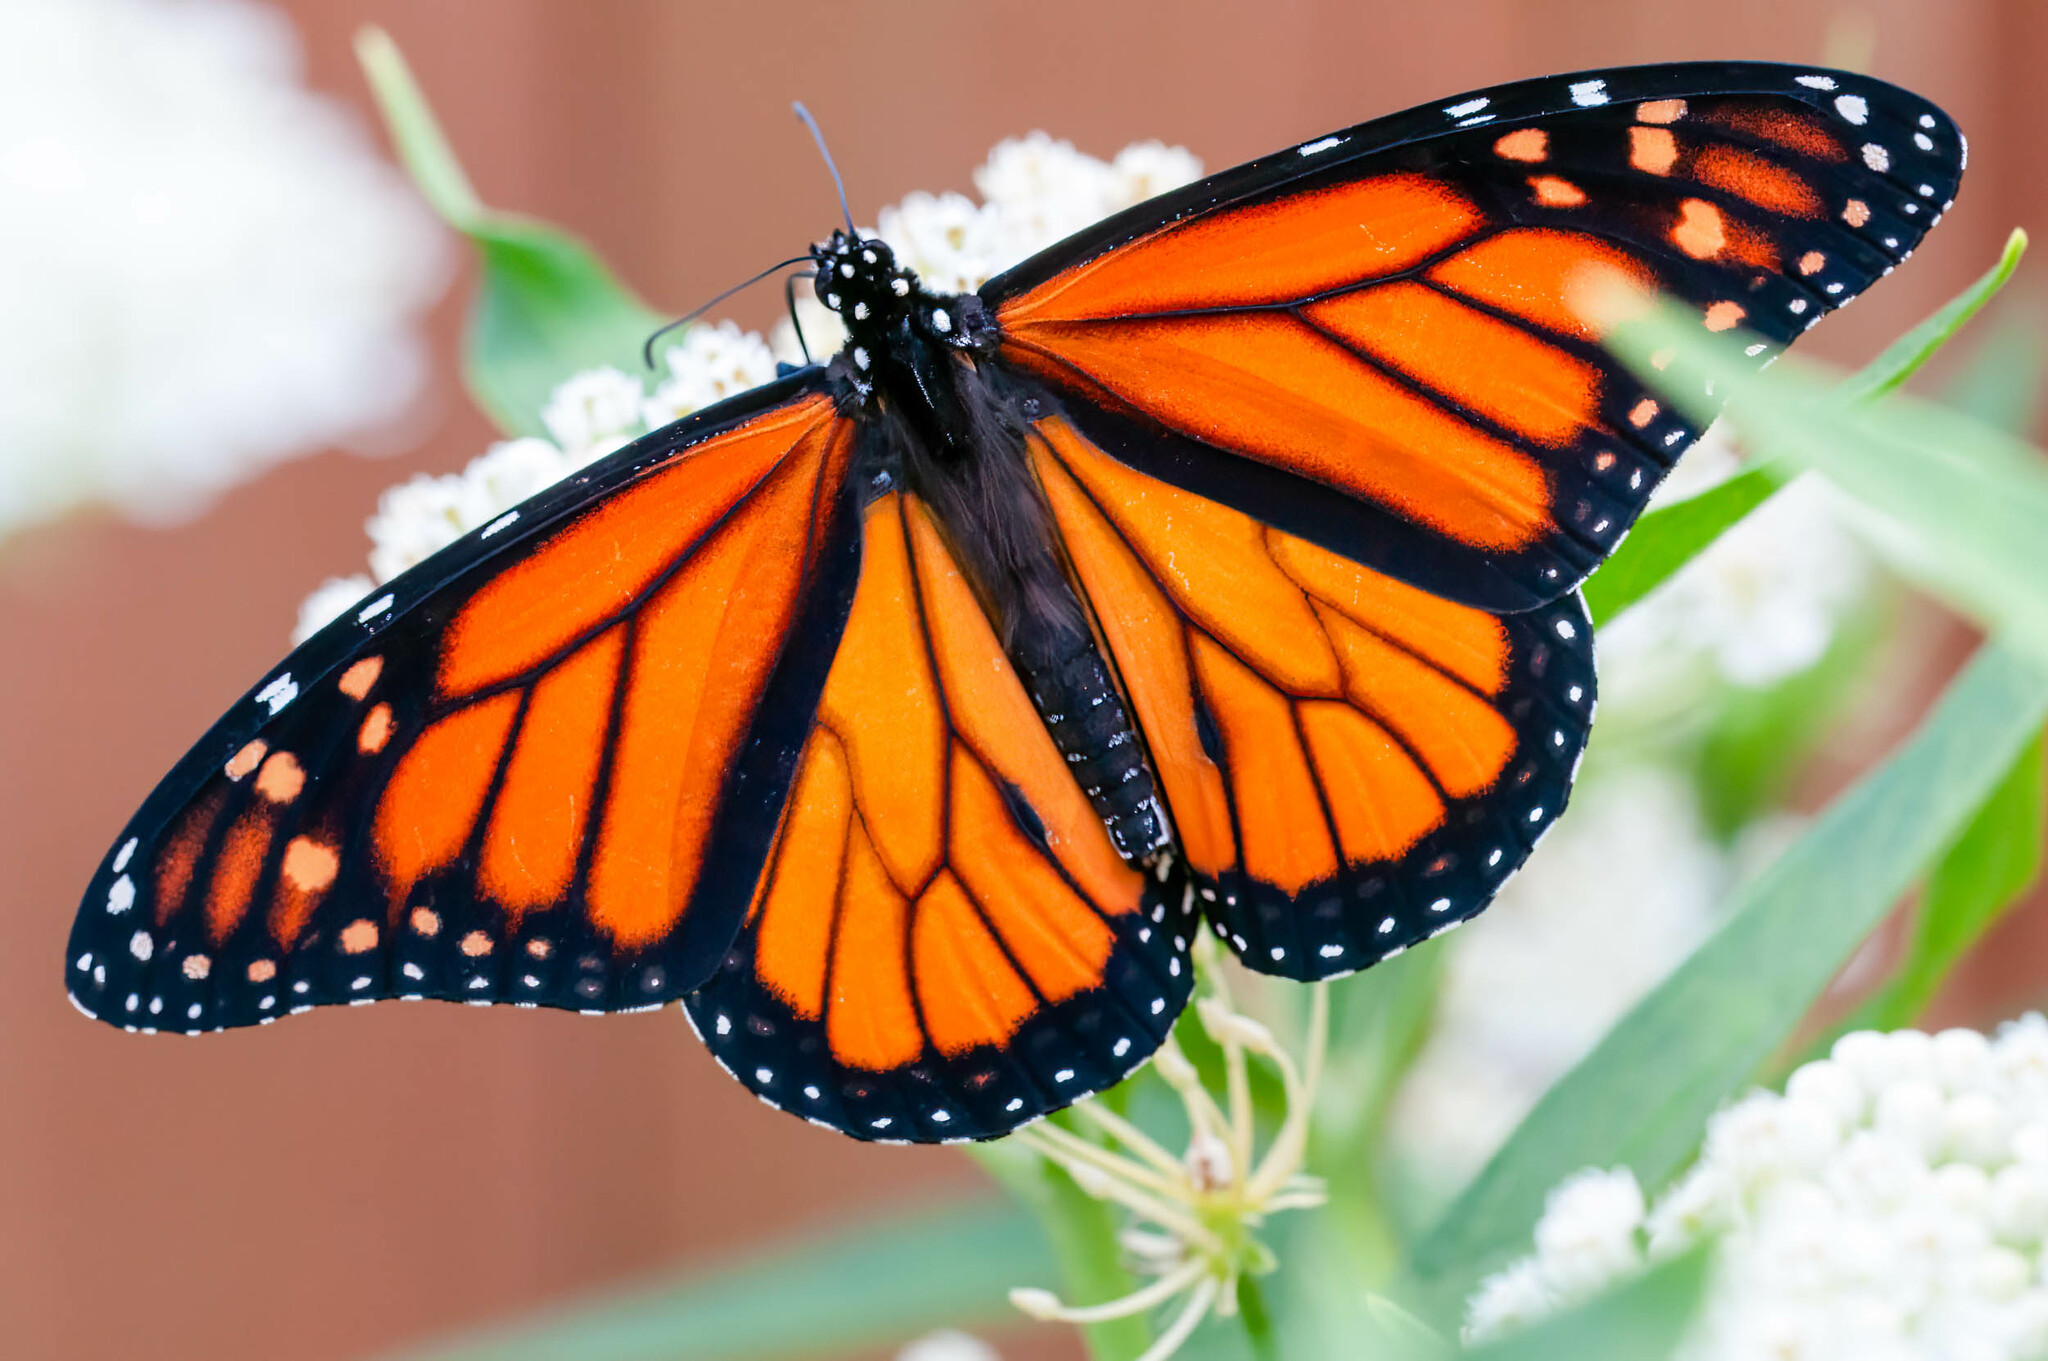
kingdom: Animalia
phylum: Arthropoda
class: Insecta
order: Lepidoptera
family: Nymphalidae
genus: Danaus
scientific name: Danaus plexippus
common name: Monarch
